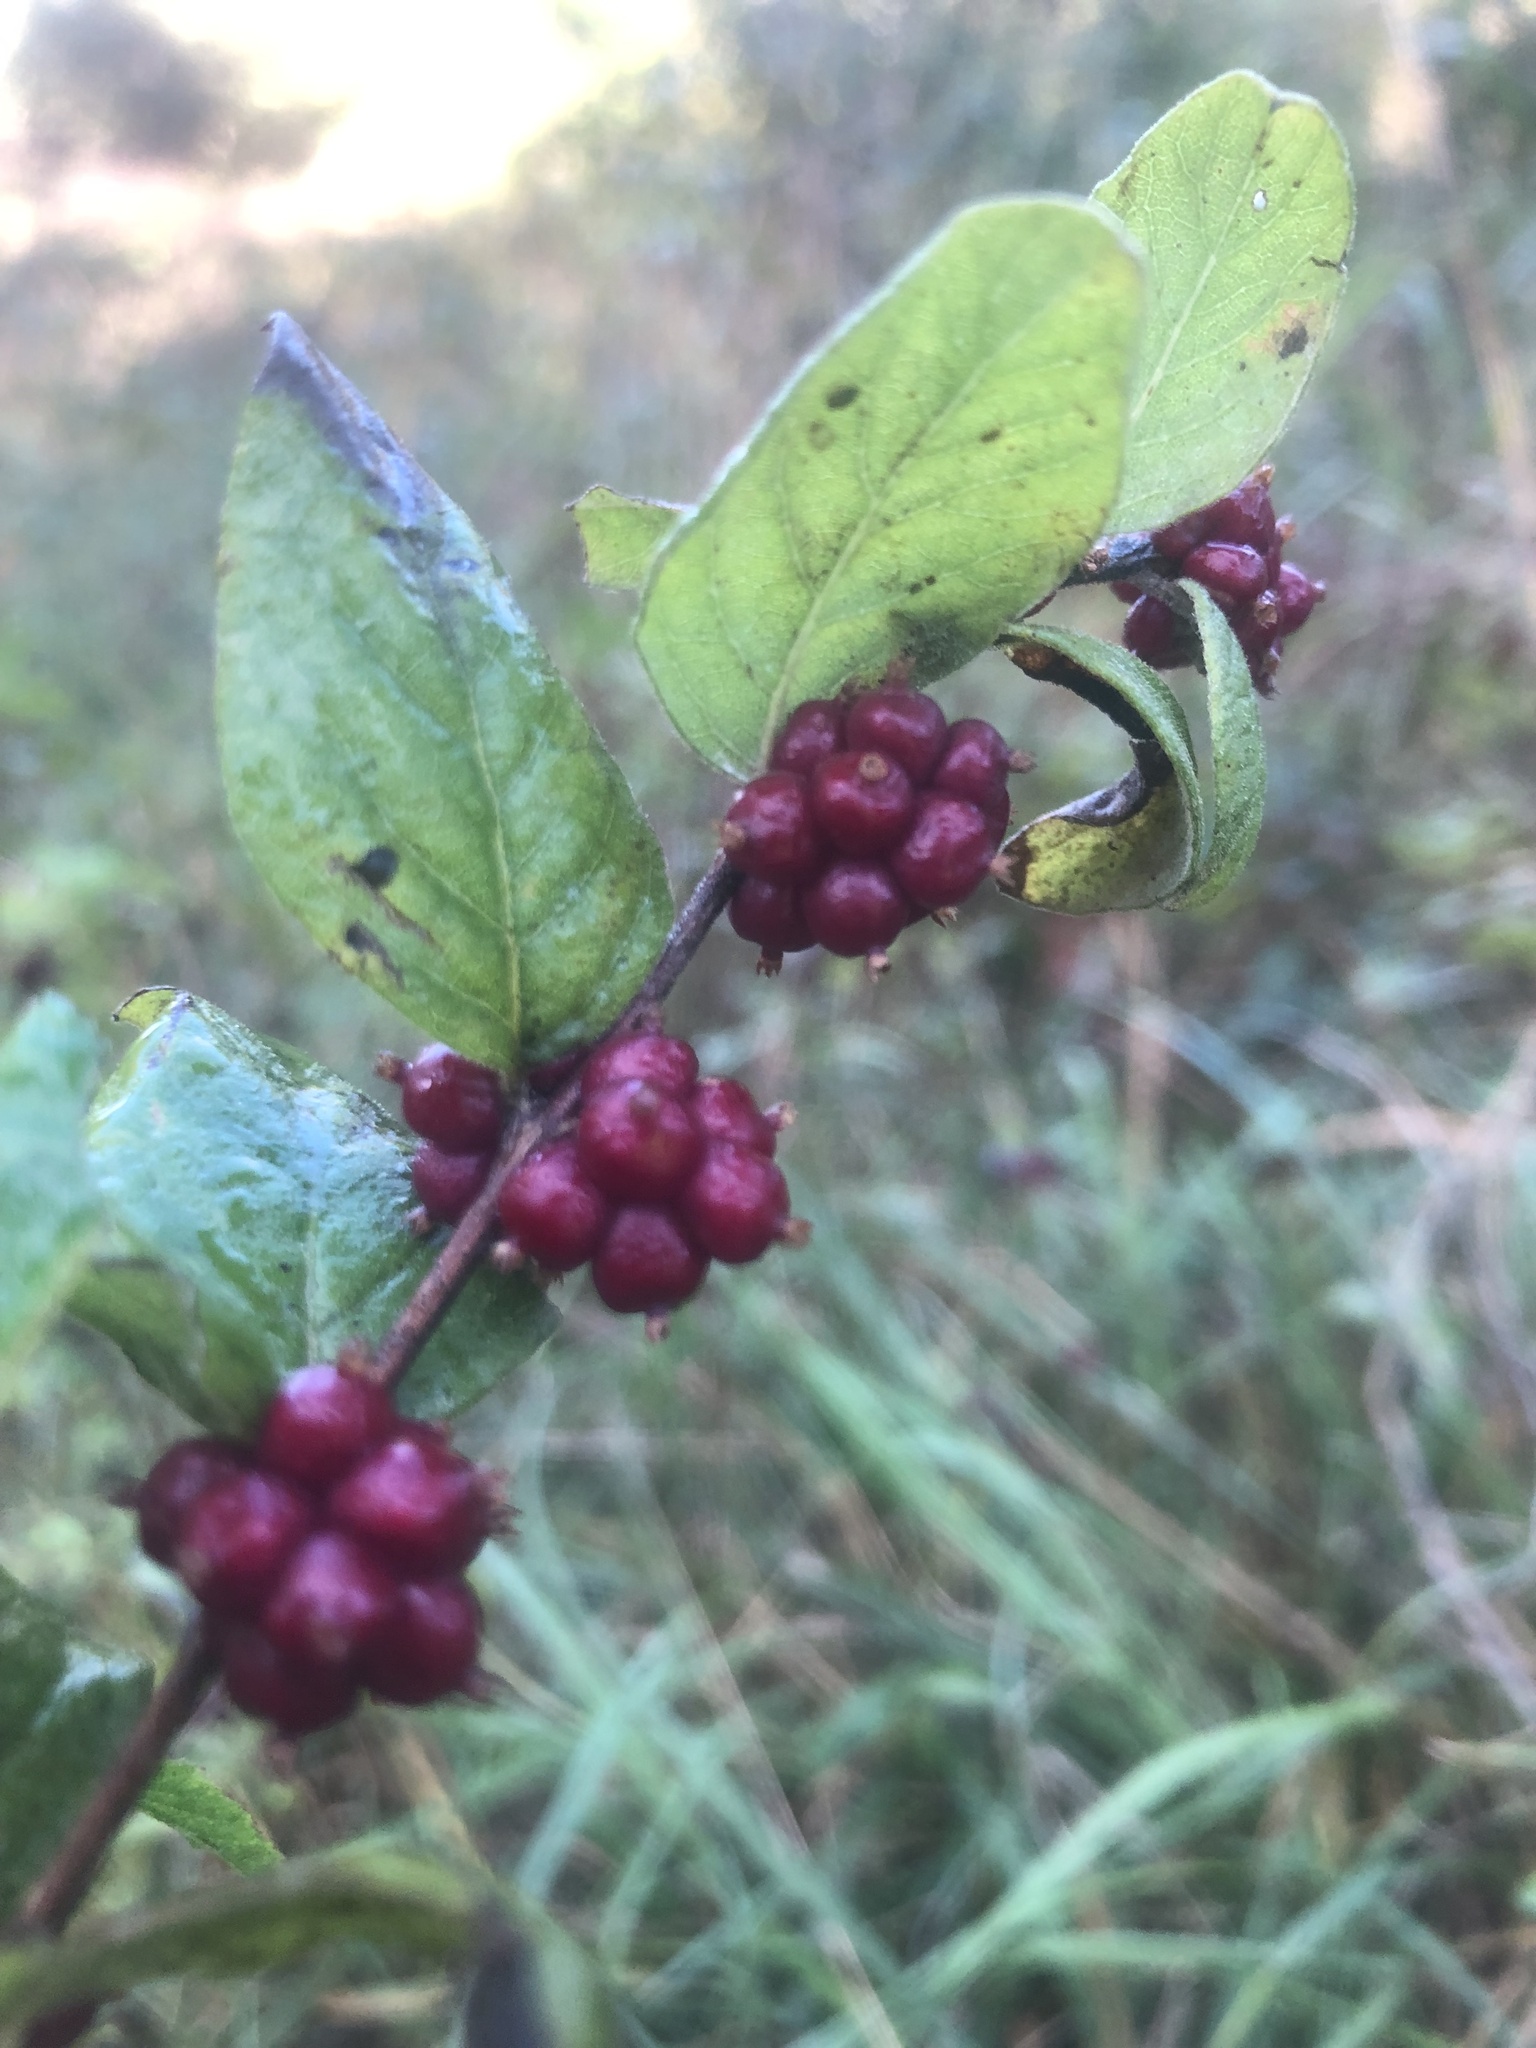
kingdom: Plantae
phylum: Tracheophyta
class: Magnoliopsida
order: Dipsacales
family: Caprifoliaceae
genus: Symphoricarpos
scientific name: Symphoricarpos orbiculatus
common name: Coralberry
